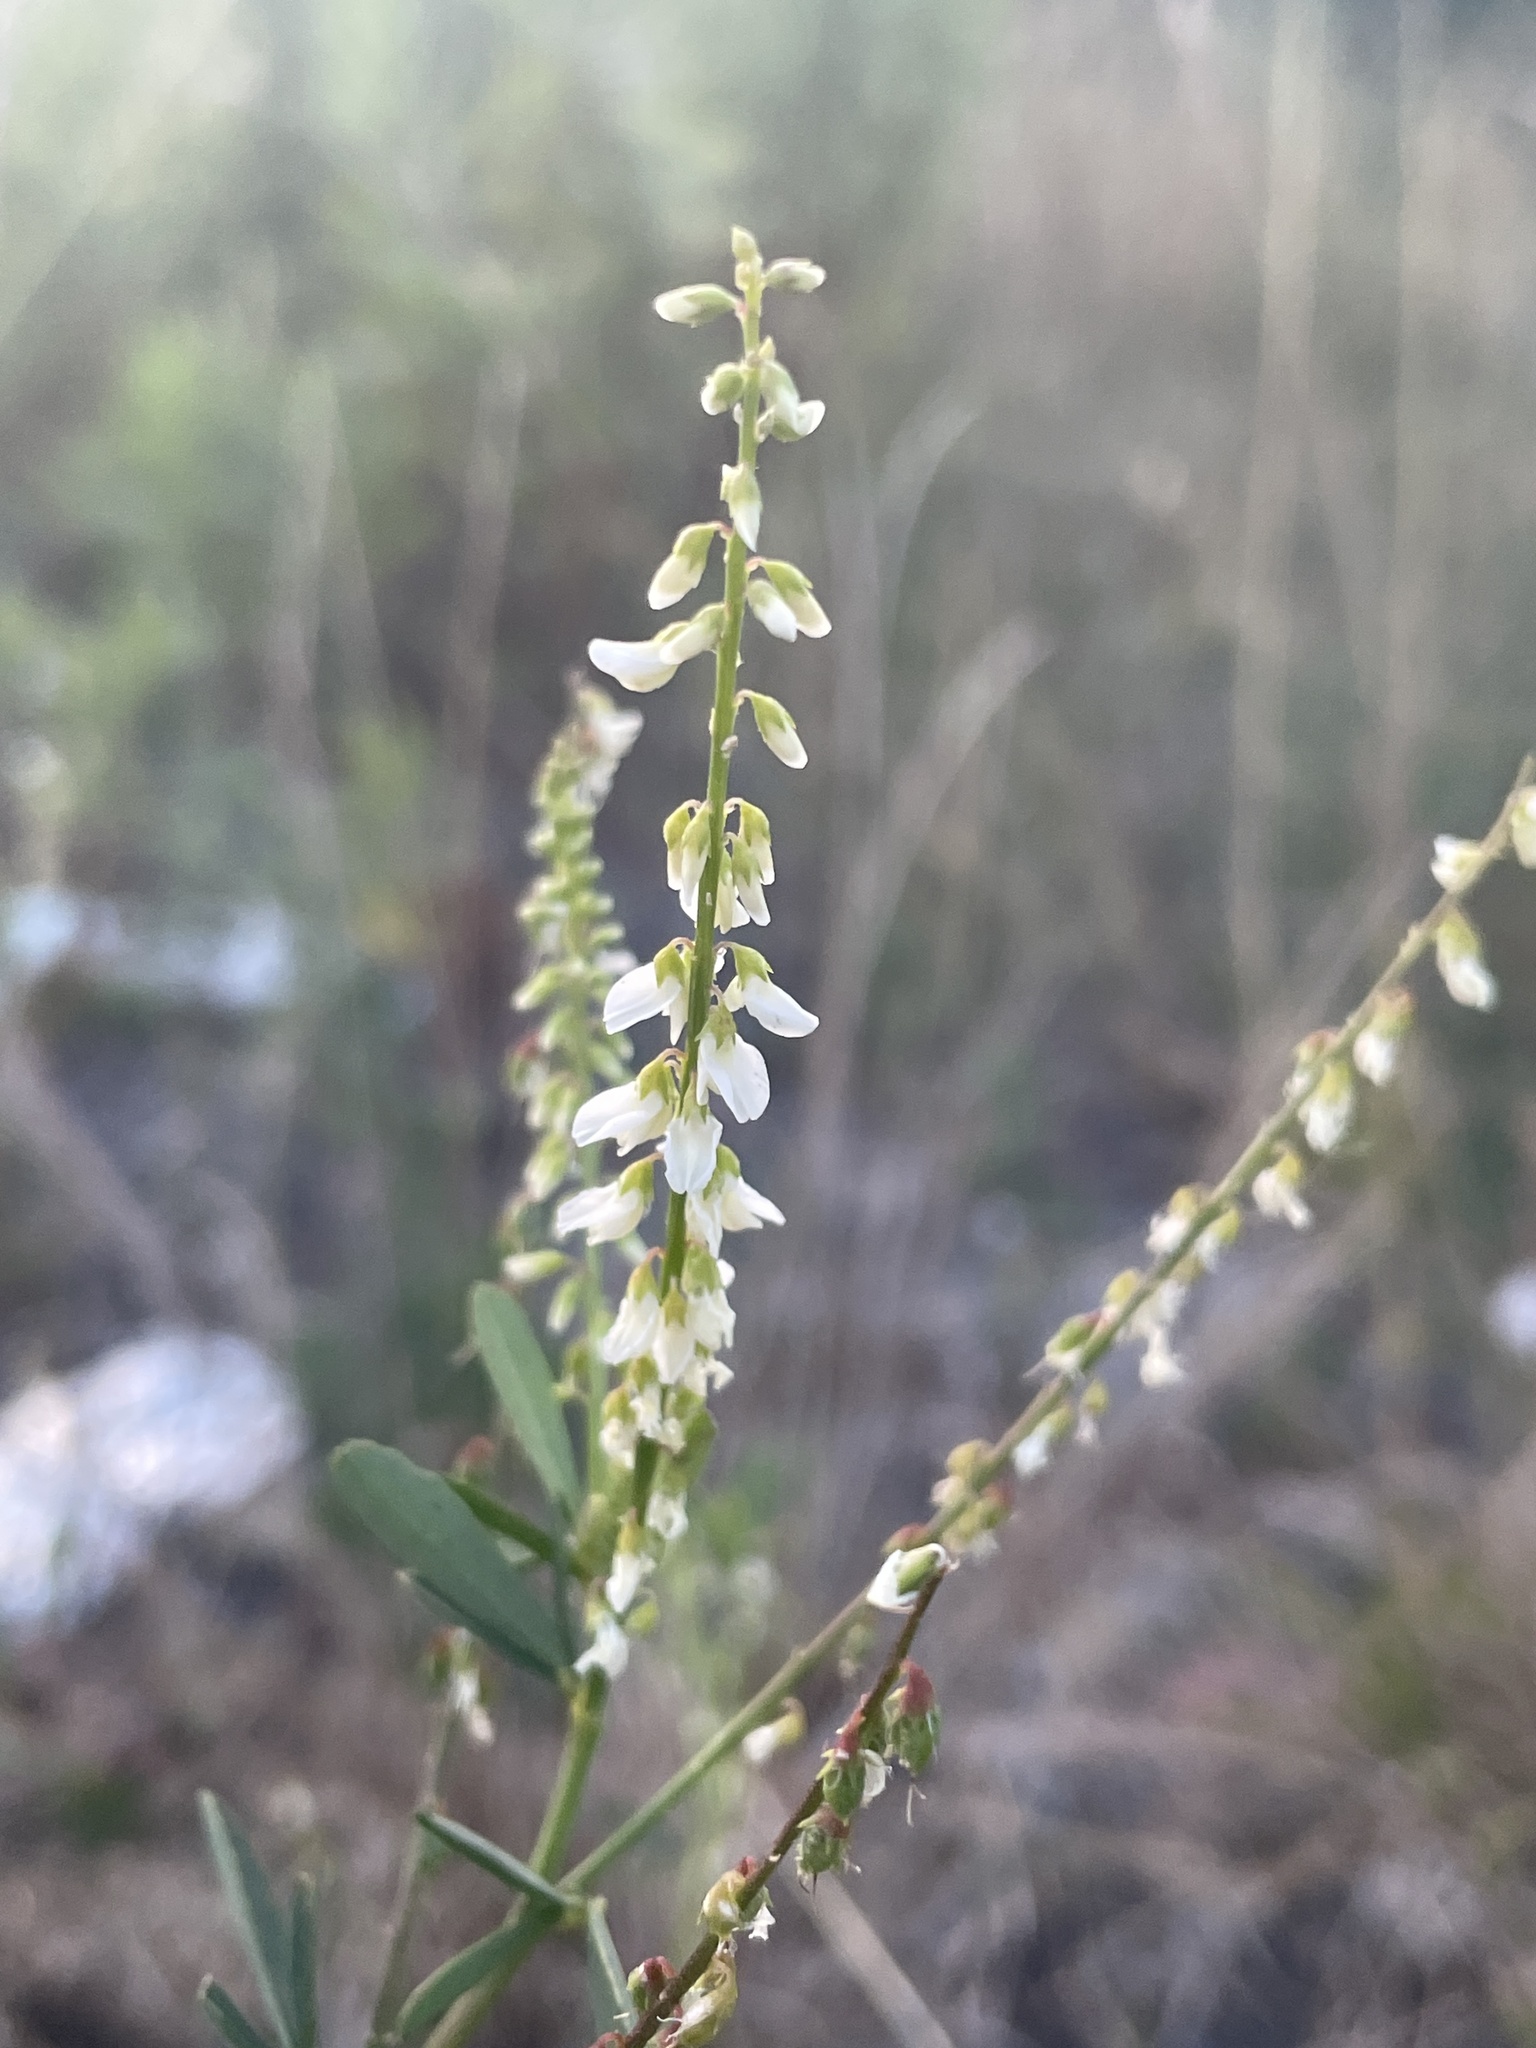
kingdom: Plantae
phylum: Tracheophyta
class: Magnoliopsida
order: Fabales
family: Fabaceae
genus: Melilotus
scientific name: Melilotus albus
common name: White melilot
